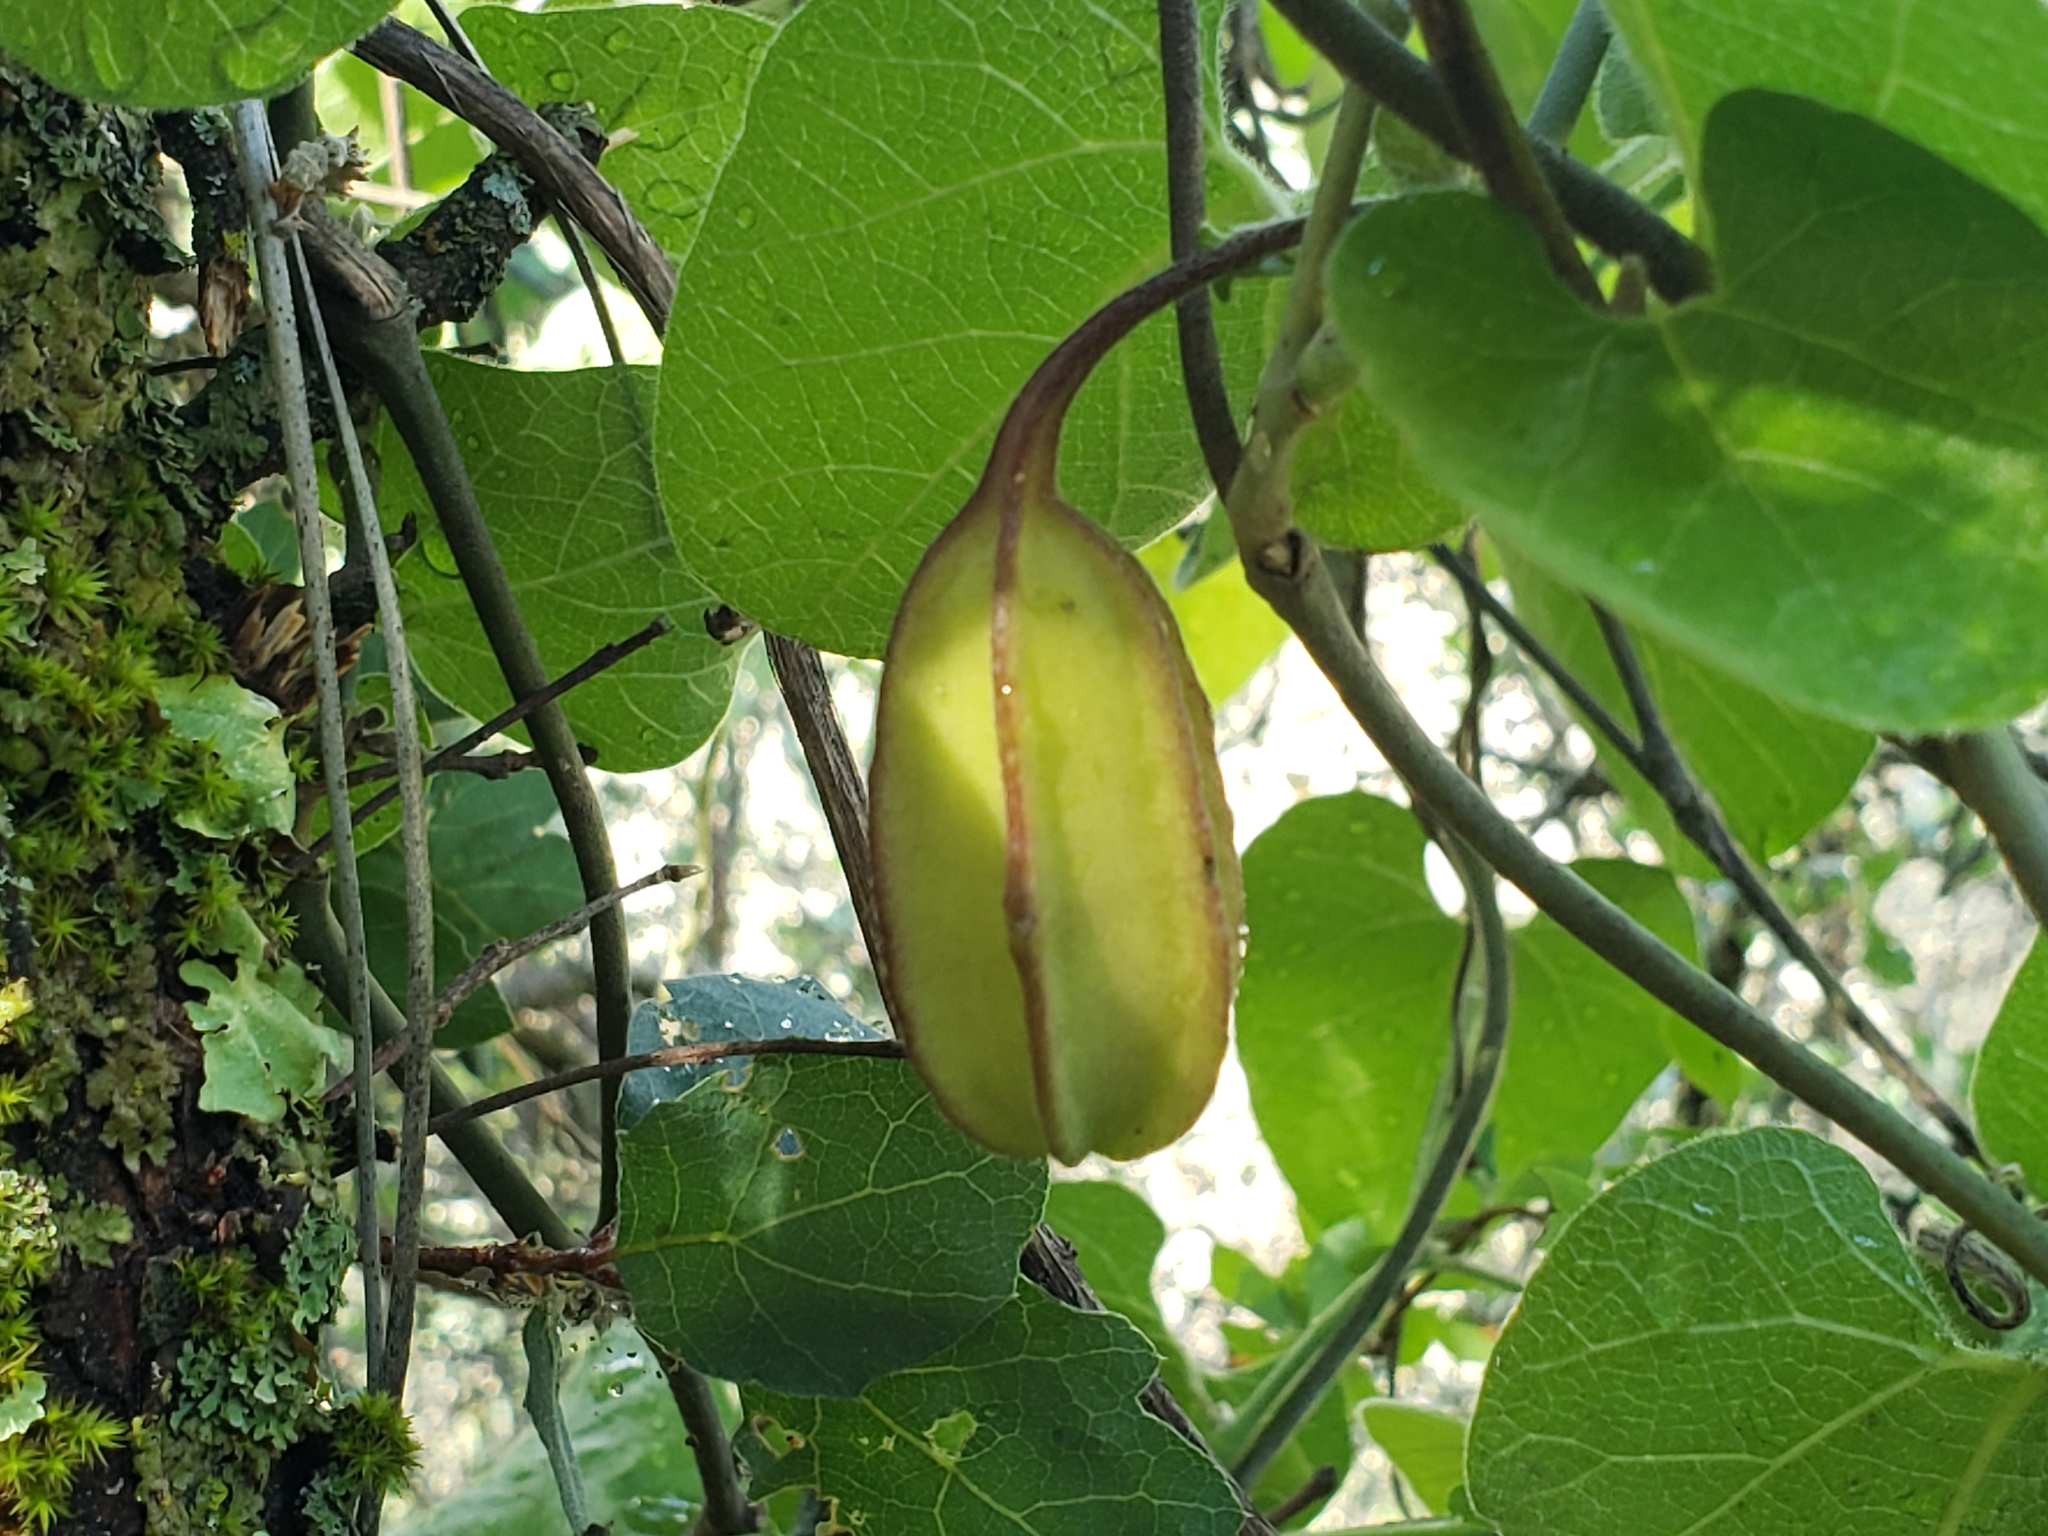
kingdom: Plantae
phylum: Tracheophyta
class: Magnoliopsida
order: Piperales
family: Aristolochiaceae
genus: Isotrema
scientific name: Isotrema californicum
